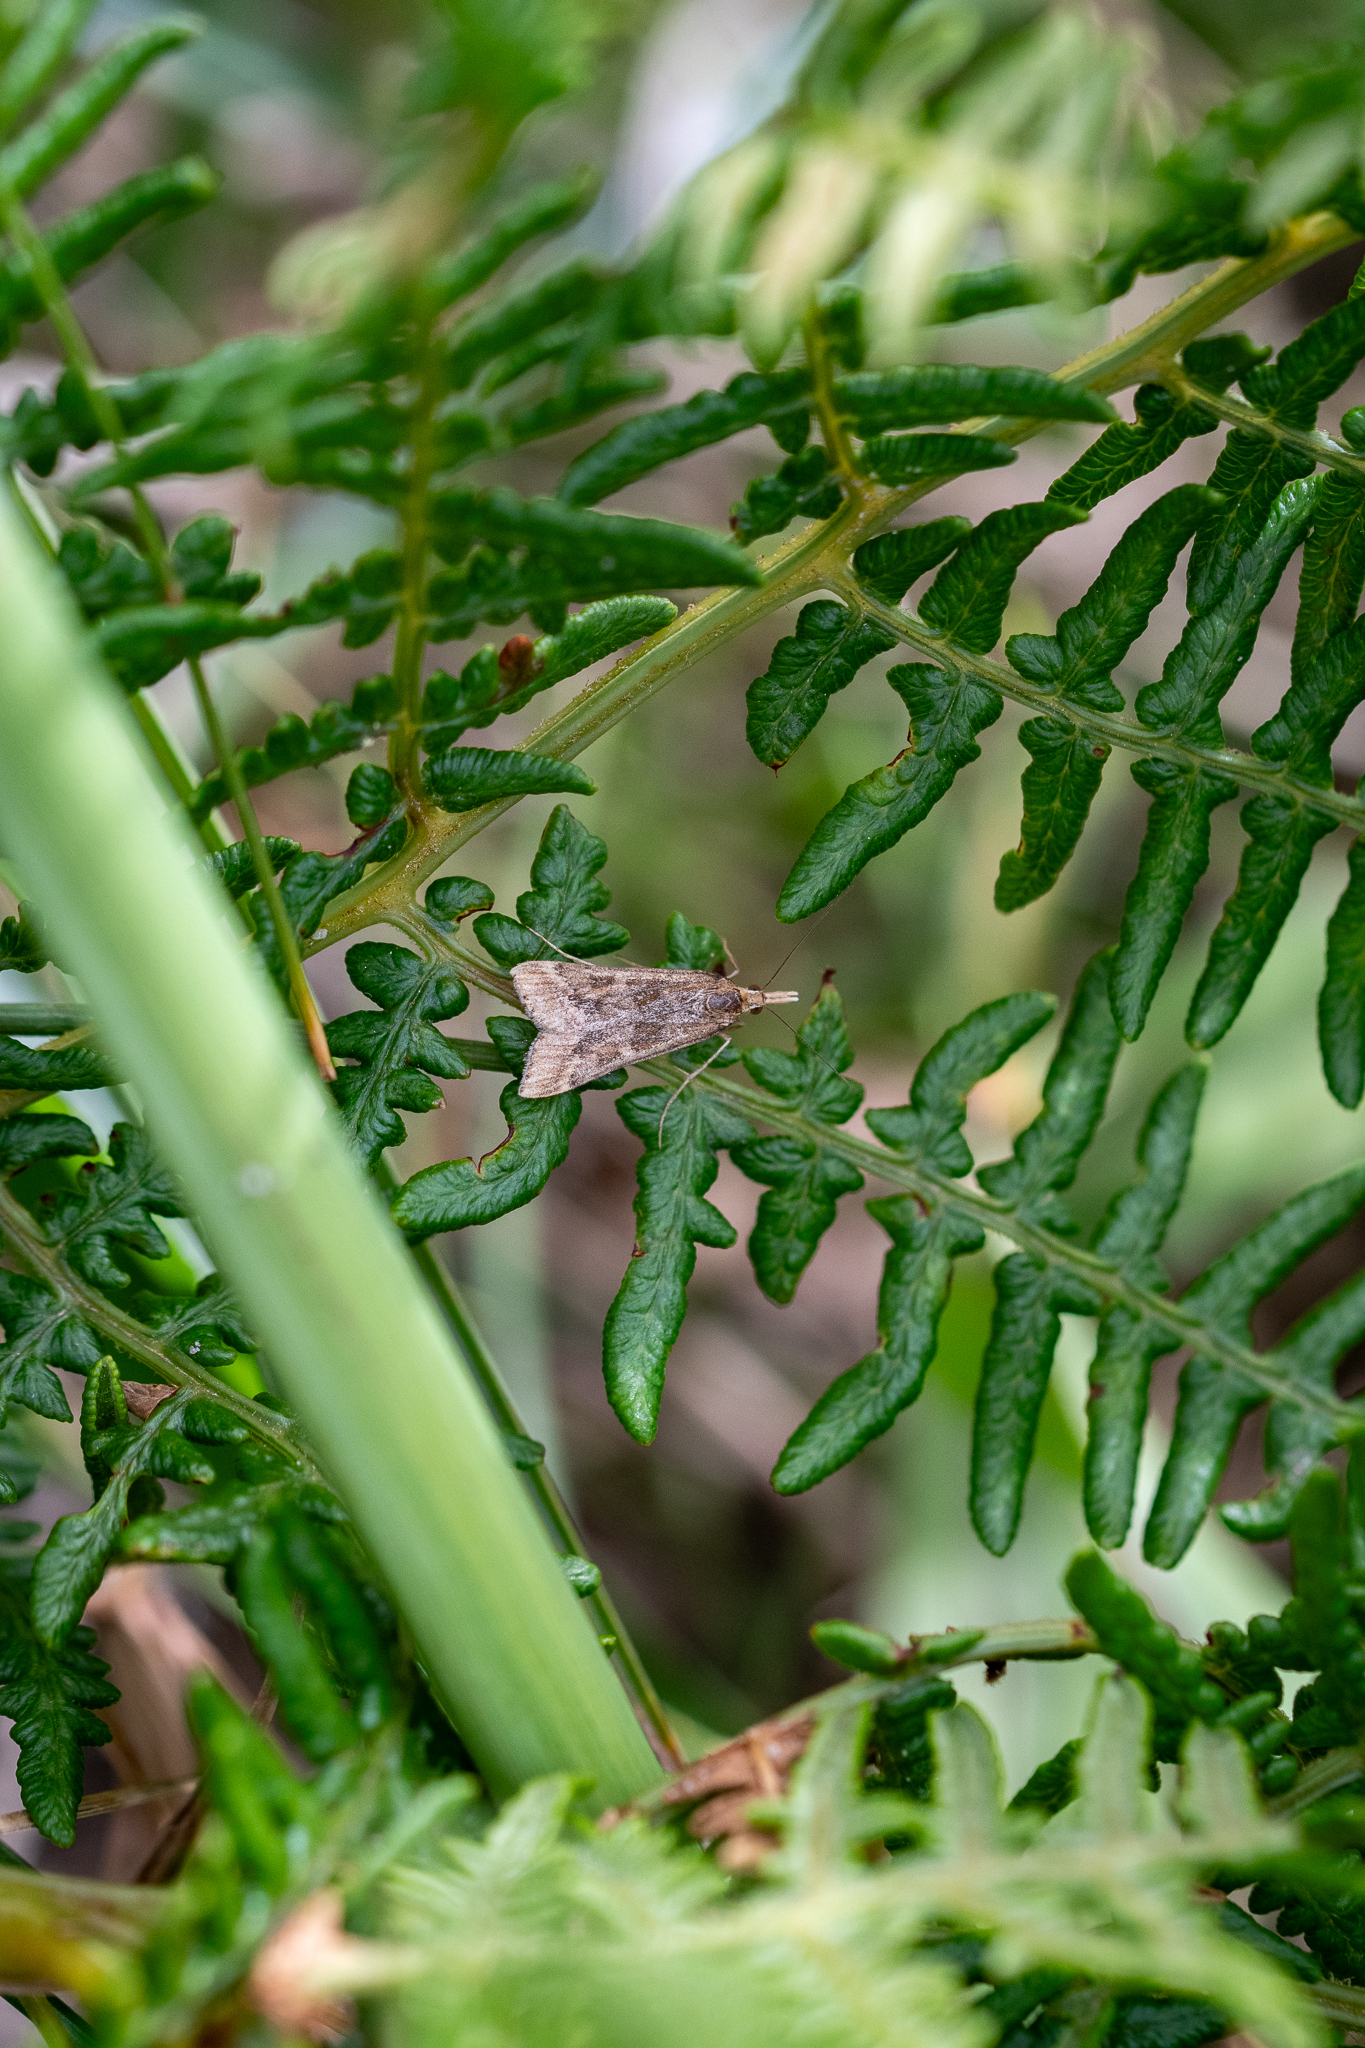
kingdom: Plantae
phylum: Tracheophyta
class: Polypodiopsida
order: Polypodiales
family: Dennstaedtiaceae
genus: Pteridium
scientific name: Pteridium aquilinum
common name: Bracken
